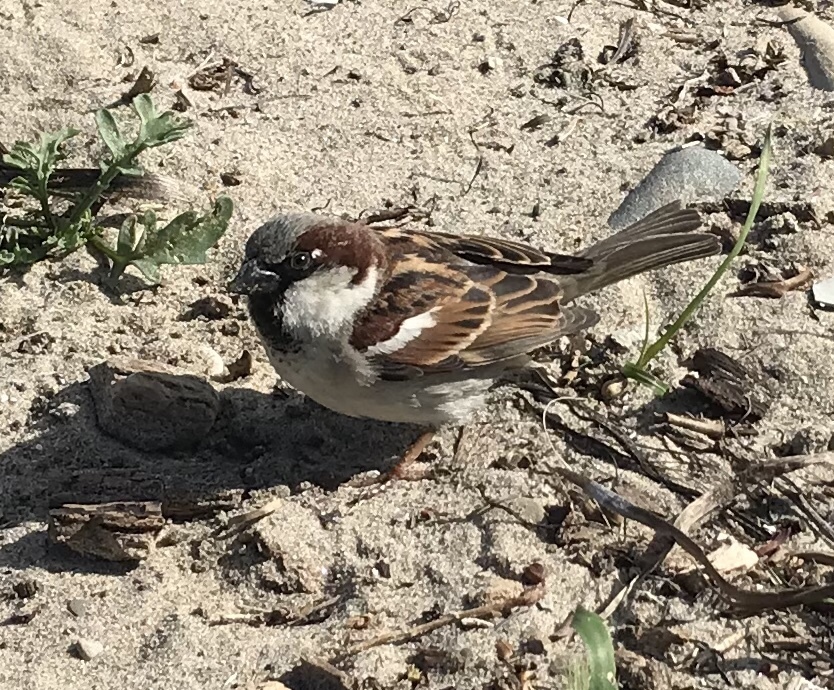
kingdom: Animalia
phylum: Chordata
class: Aves
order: Passeriformes
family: Passeridae
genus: Passer
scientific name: Passer domesticus
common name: House sparrow
